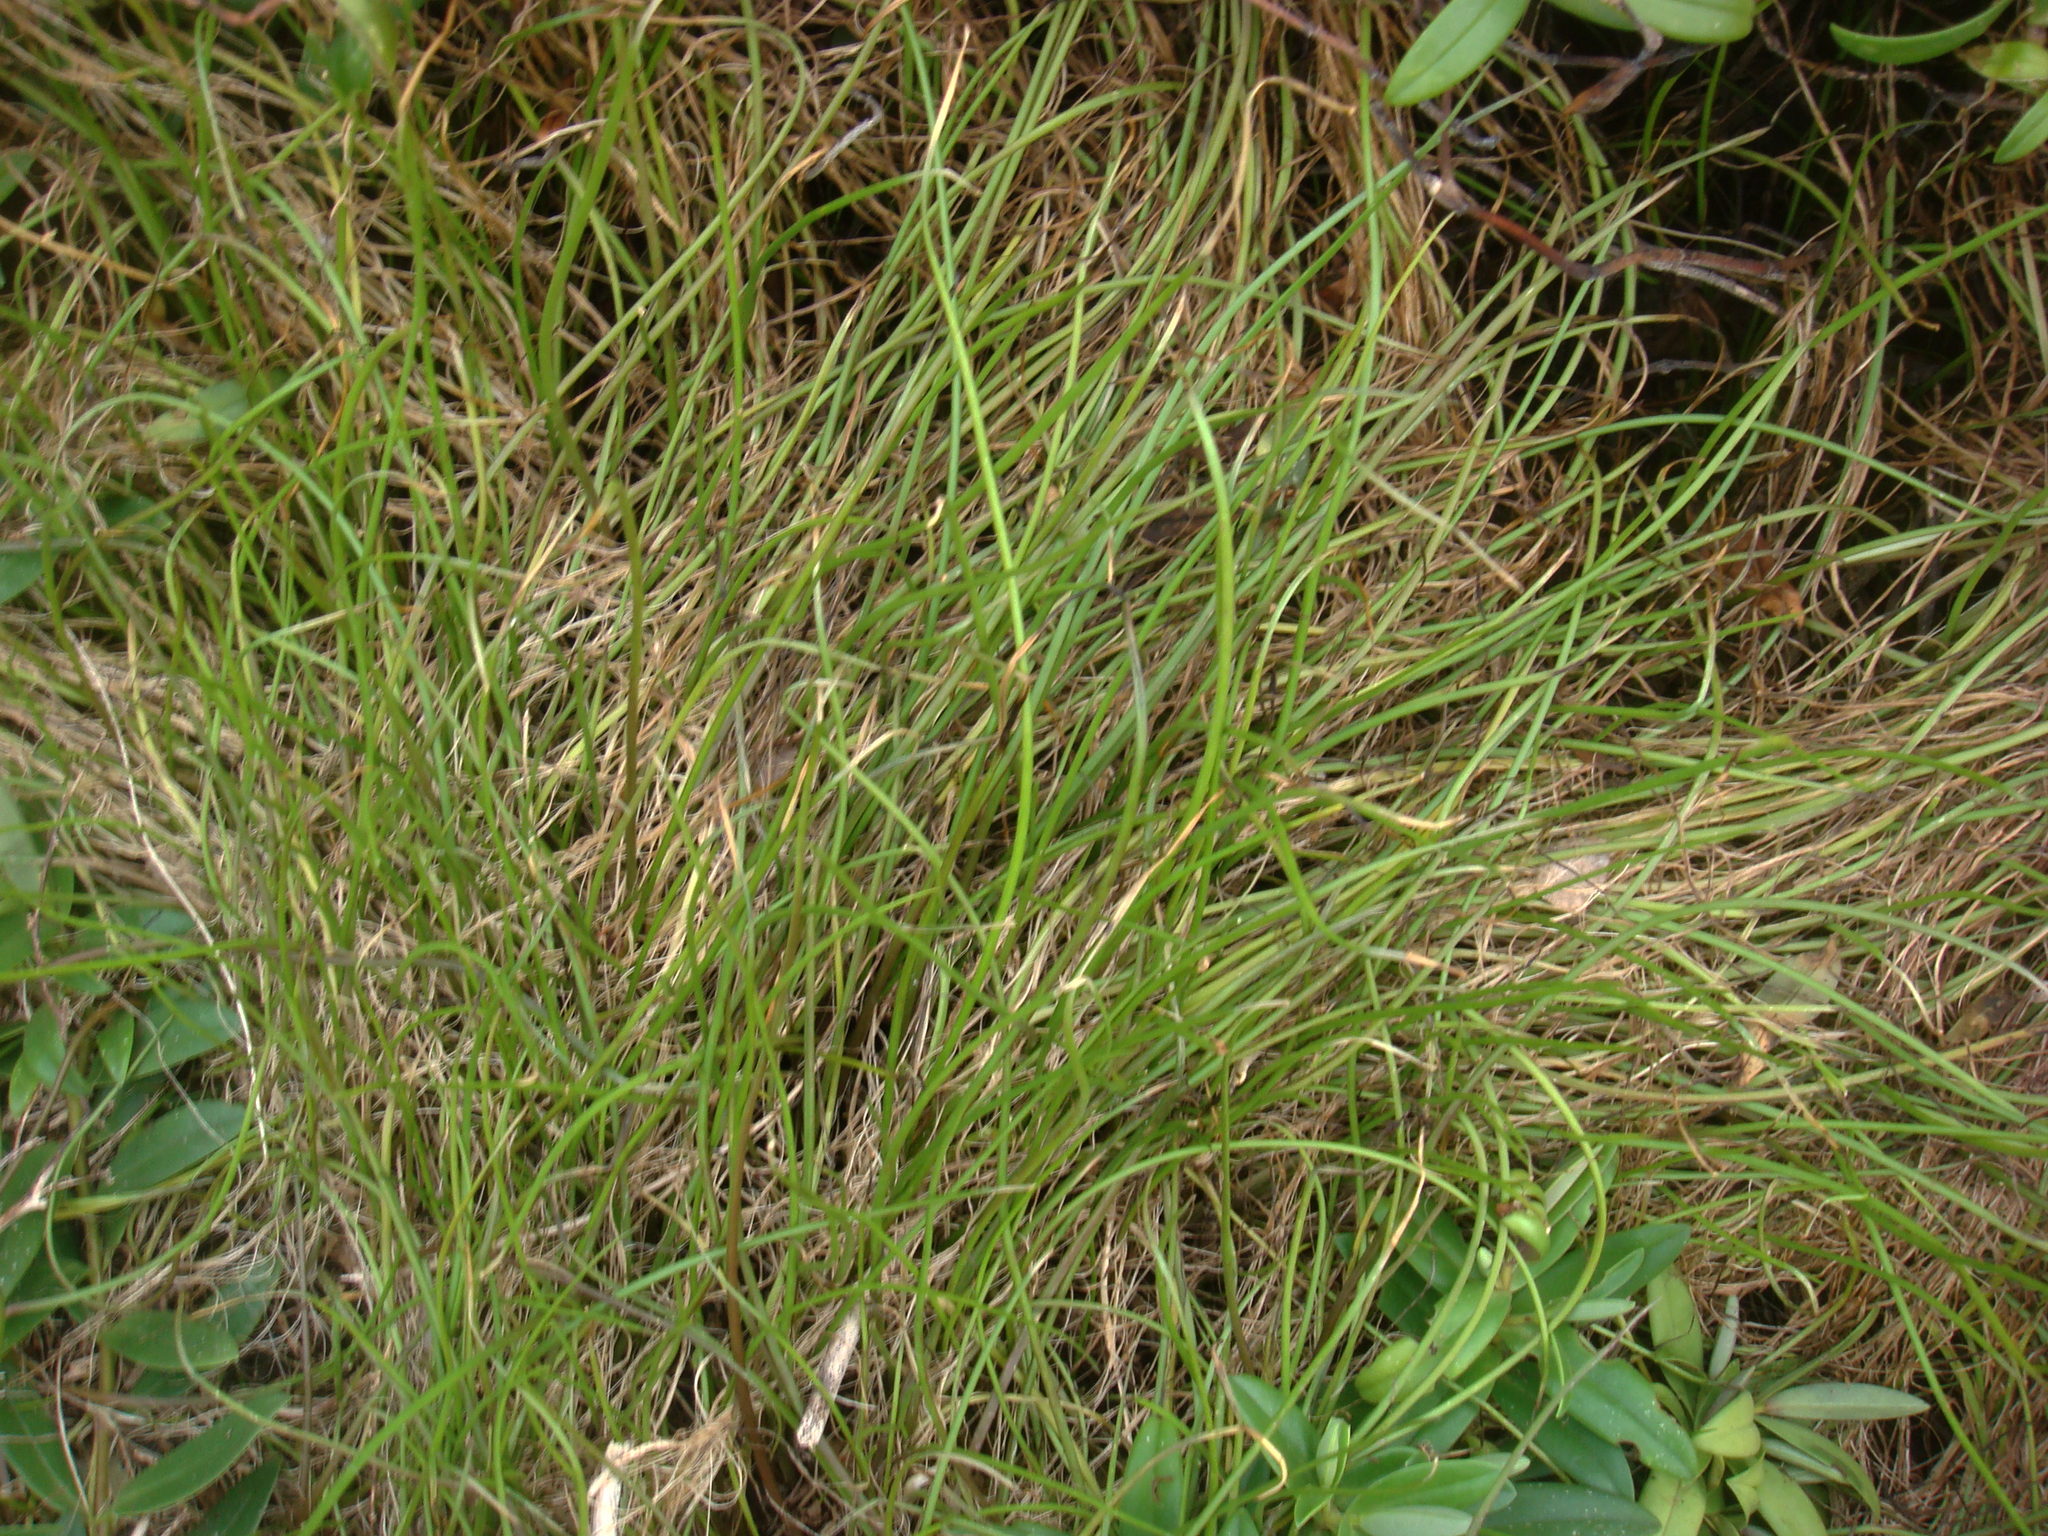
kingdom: Plantae
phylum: Tracheophyta
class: Liliopsida
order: Alismatales
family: Juncaginaceae
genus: Triglochin
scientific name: Triglochin striata
